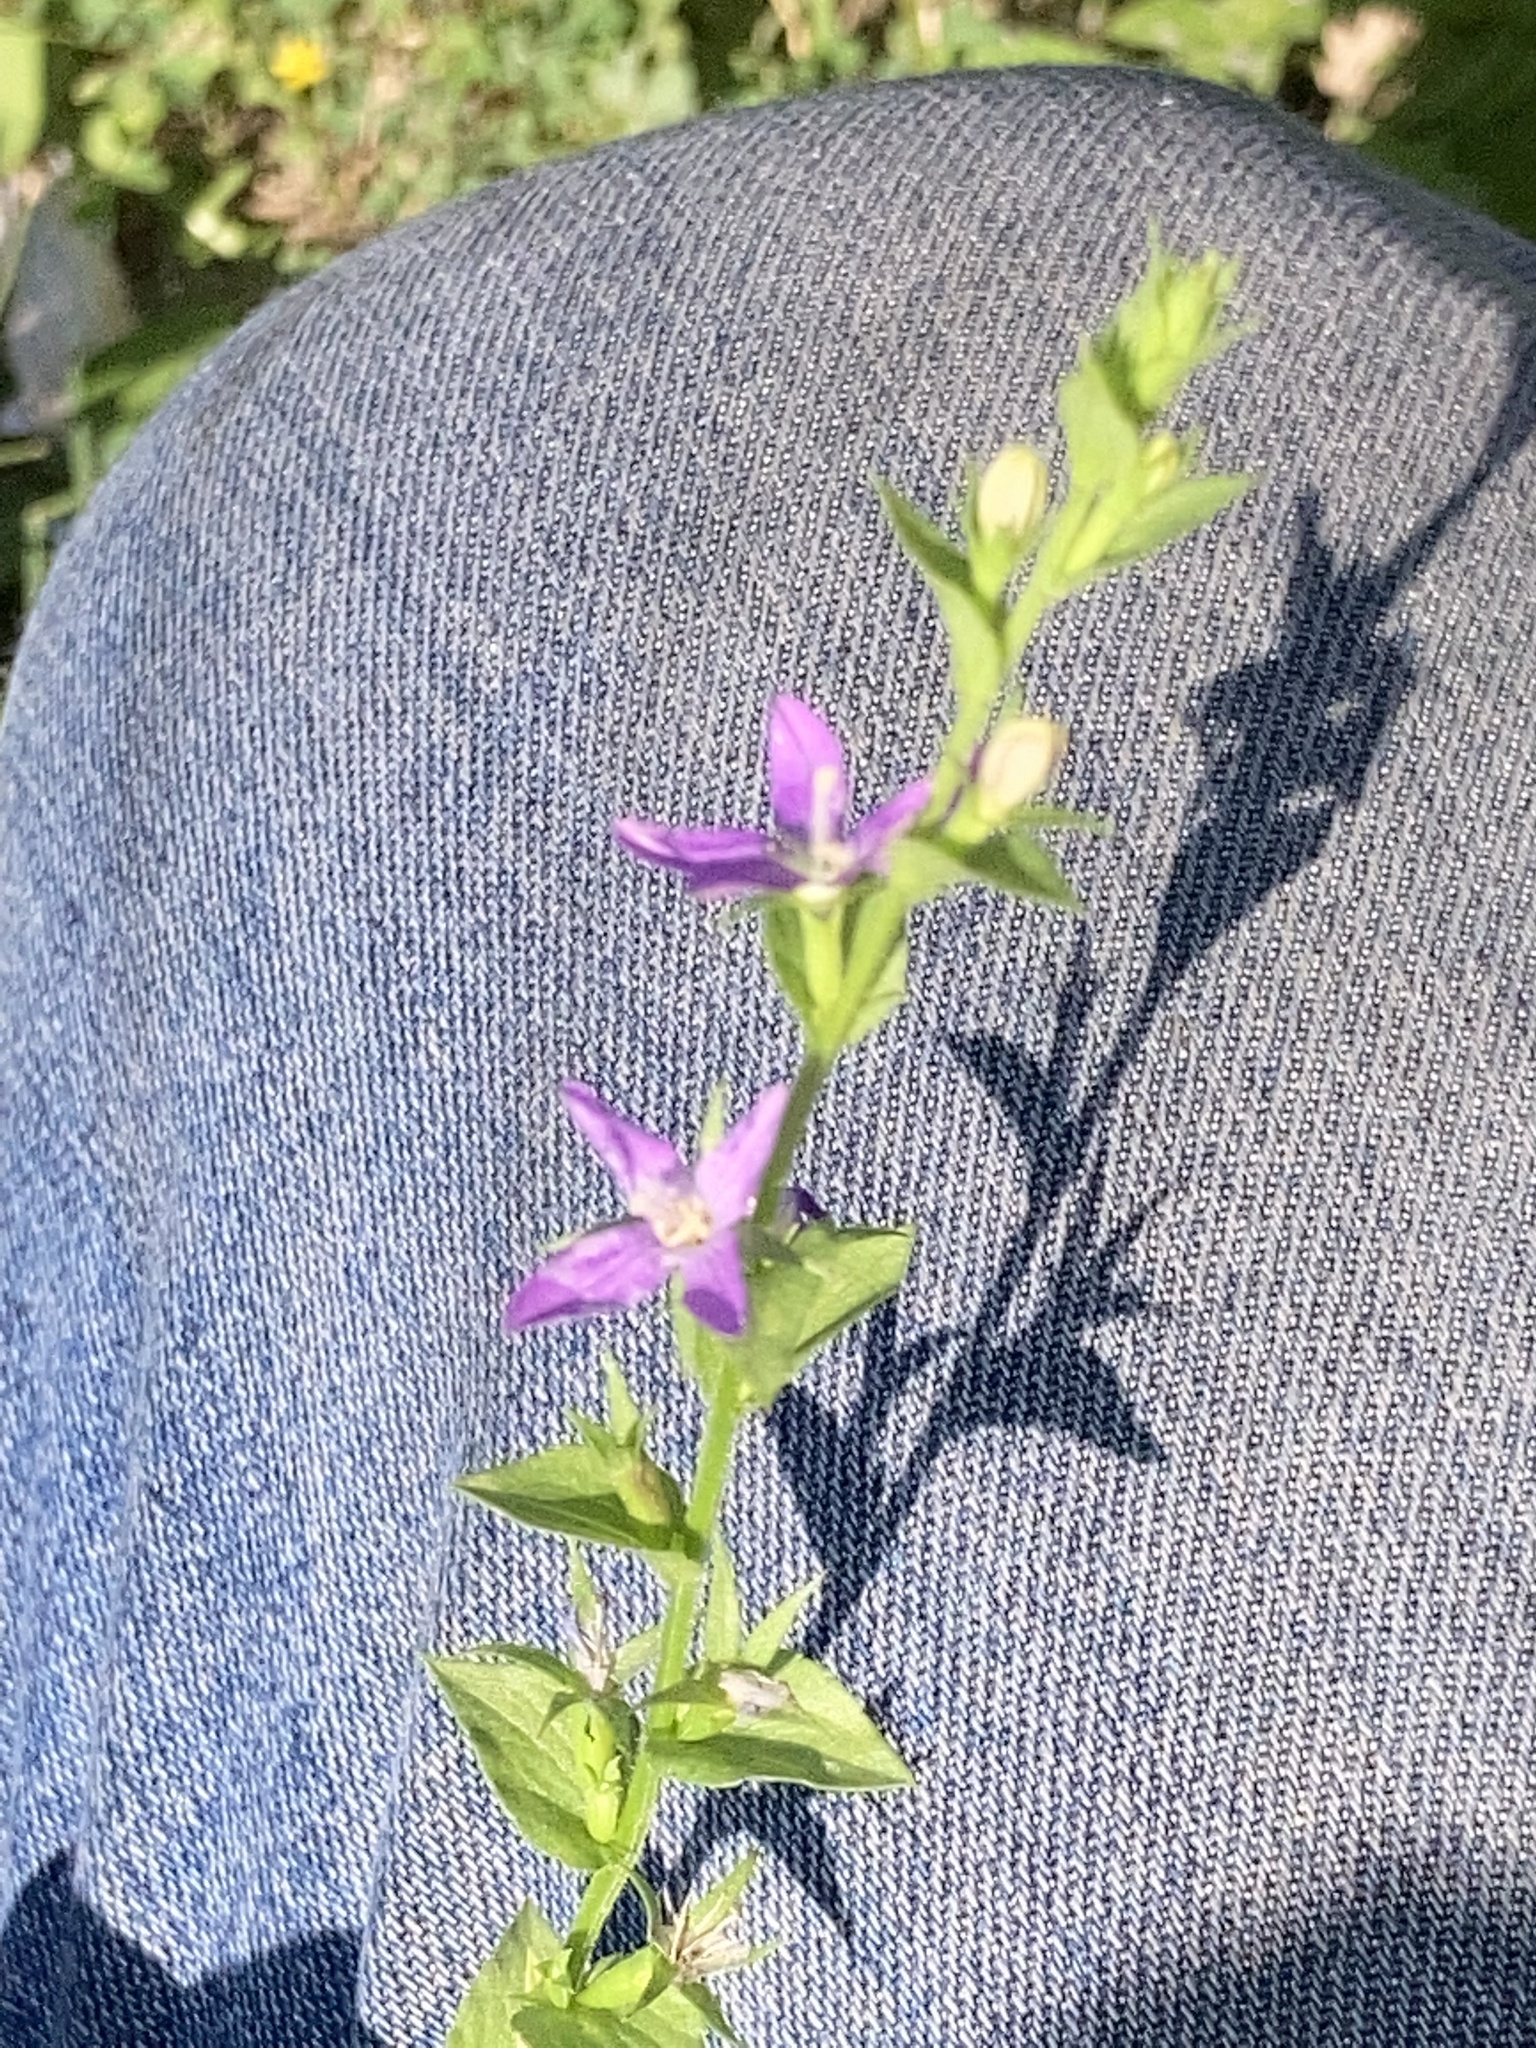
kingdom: Plantae
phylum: Tracheophyta
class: Magnoliopsida
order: Asterales
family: Campanulaceae
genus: Triodanis
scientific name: Triodanis lamprosperma
